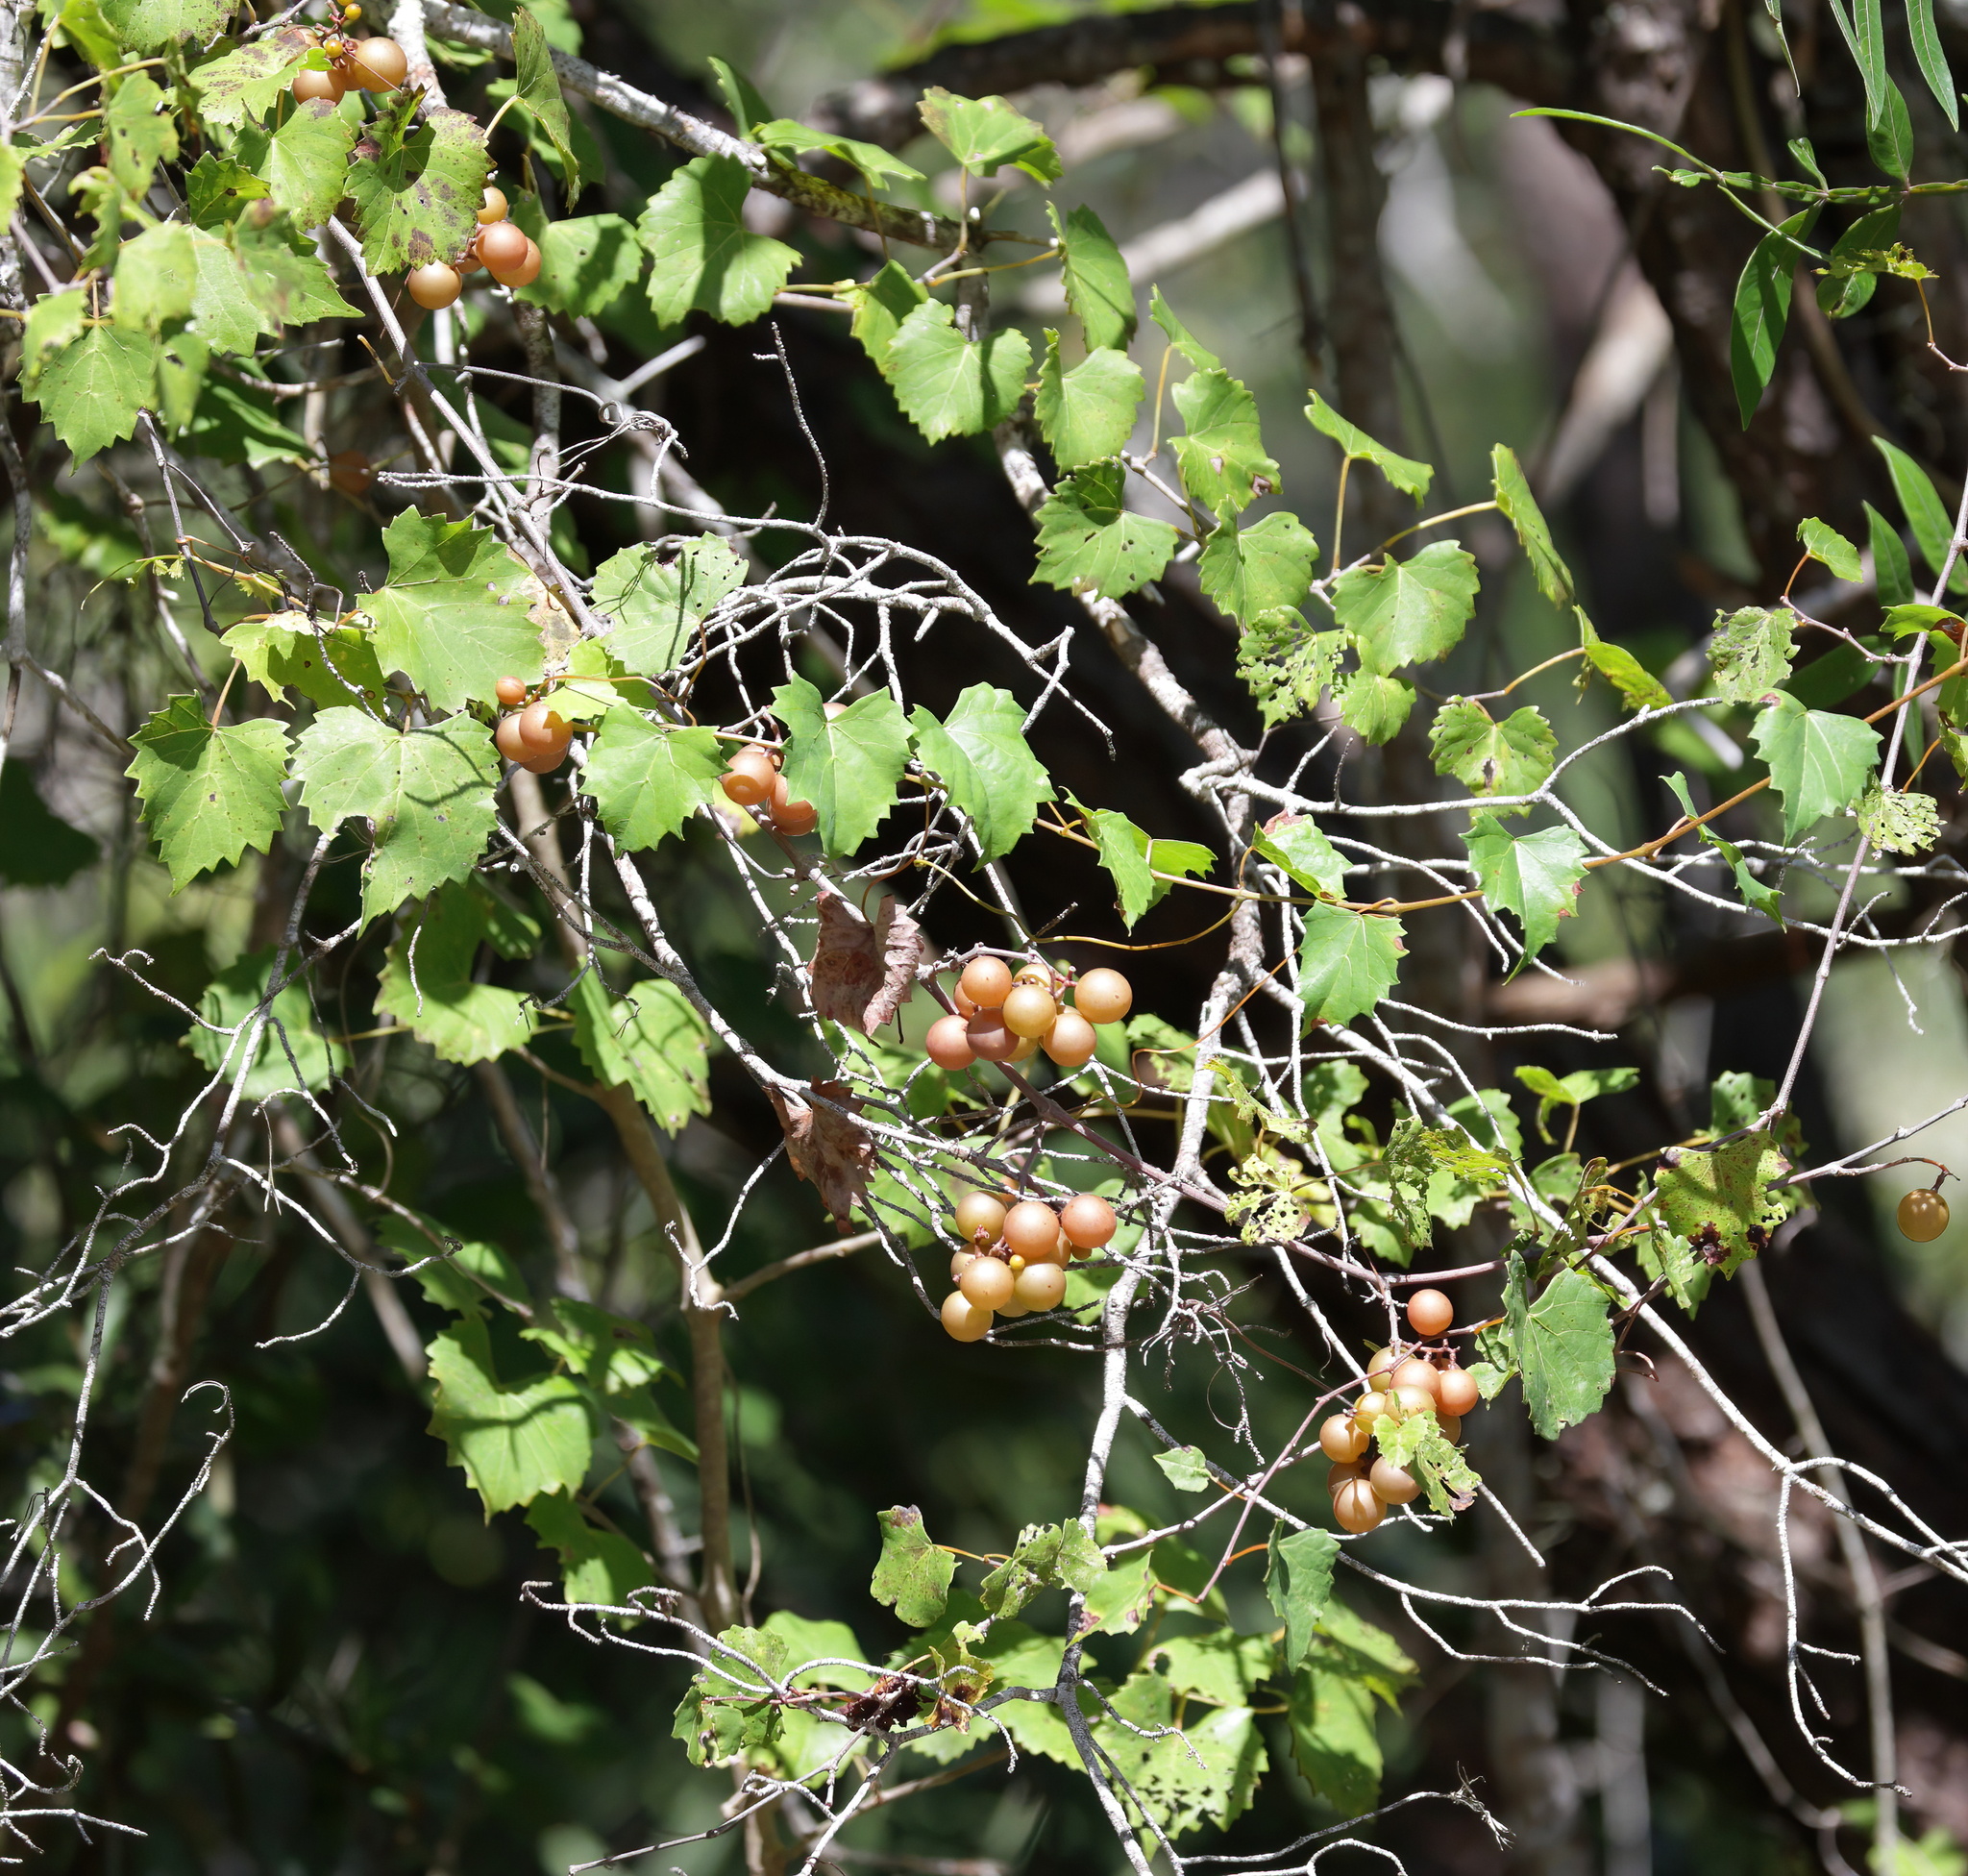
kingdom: Plantae
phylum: Tracheophyta
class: Magnoliopsida
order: Vitales
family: Vitaceae
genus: Vitis
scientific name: Vitis rotundifolia
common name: Muscadine grape
